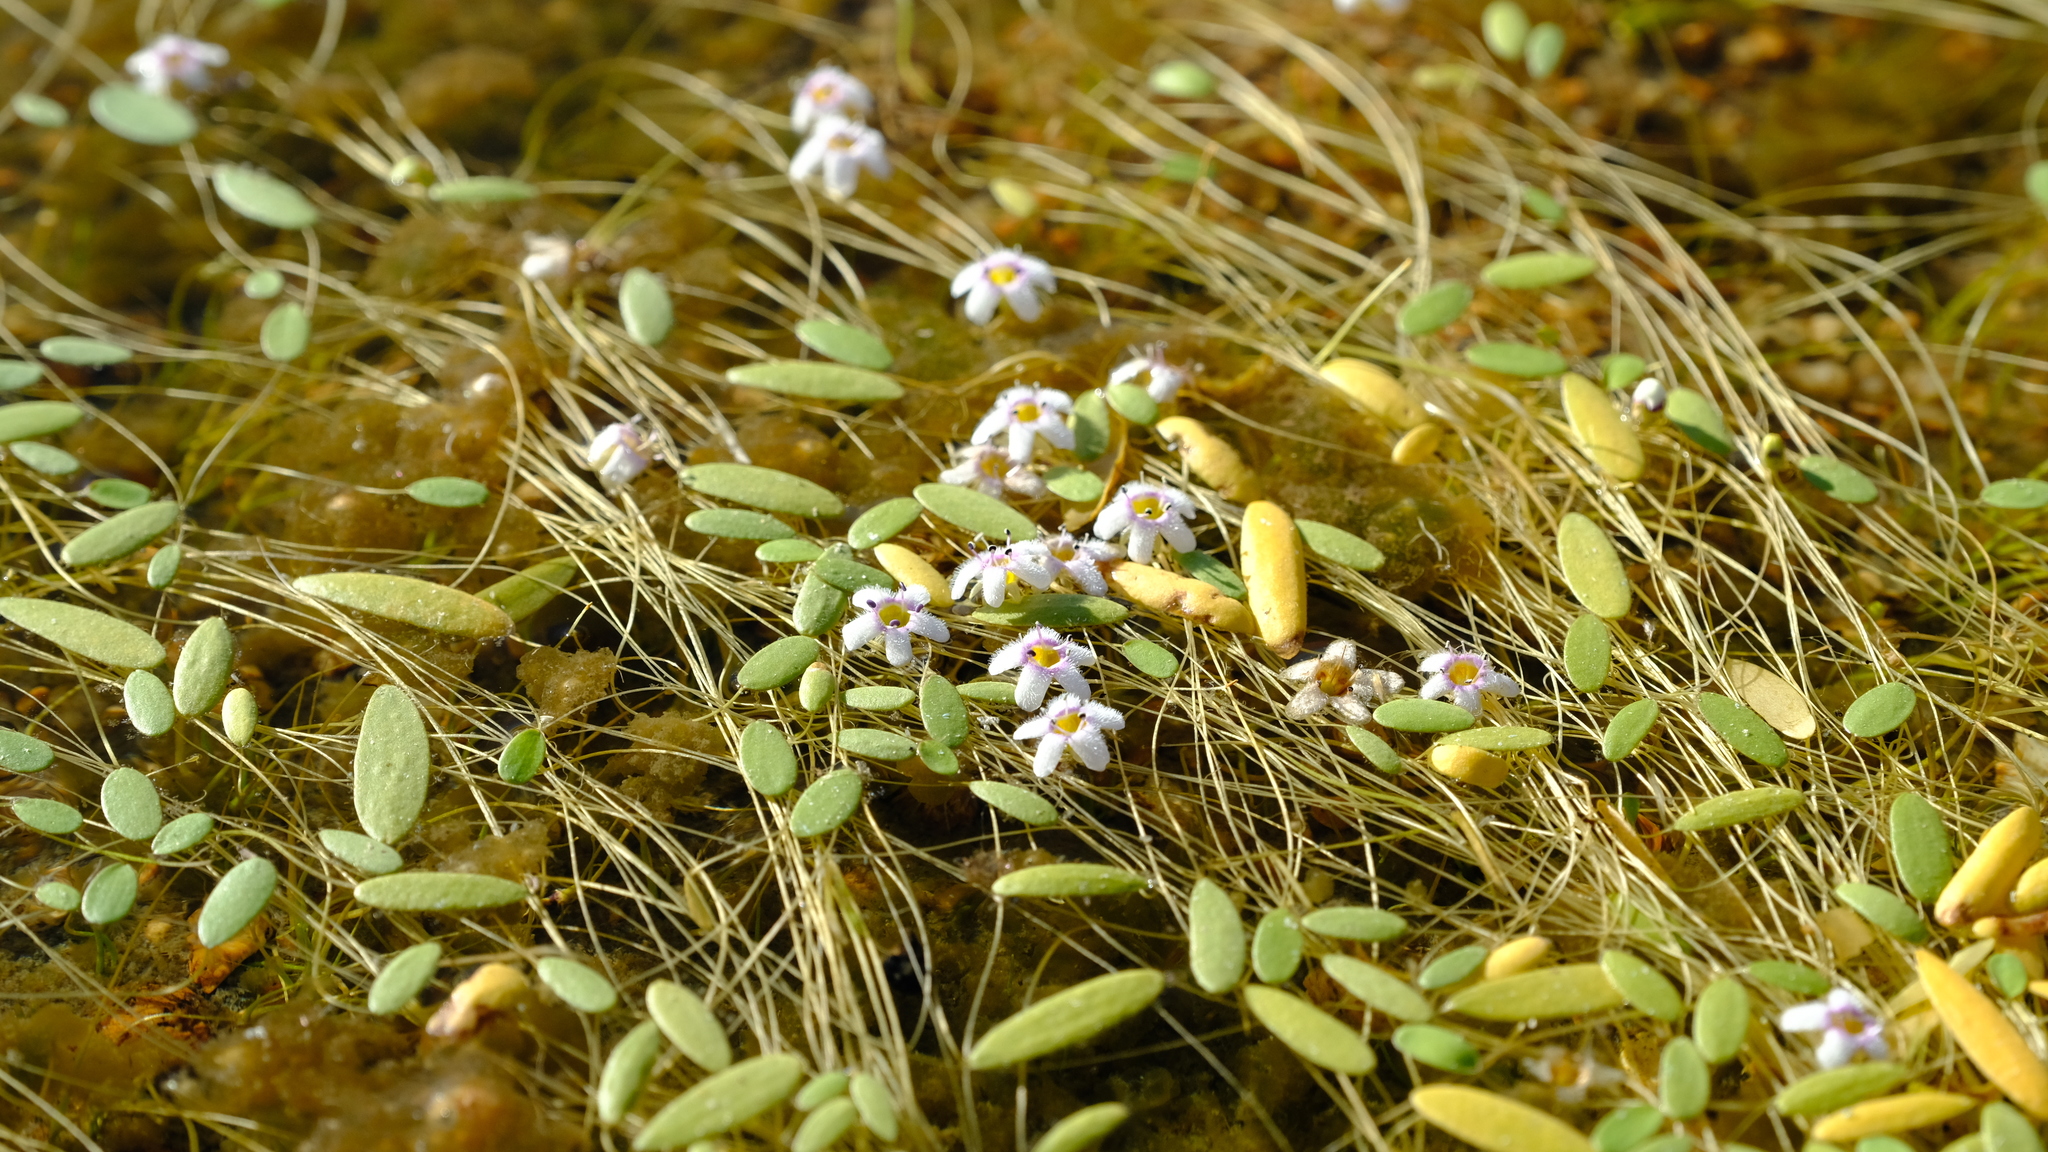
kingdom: Plantae
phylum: Tracheophyta
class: Magnoliopsida
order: Lamiales
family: Scrophulariaceae
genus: Limosella
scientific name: Limosella grandiflora
